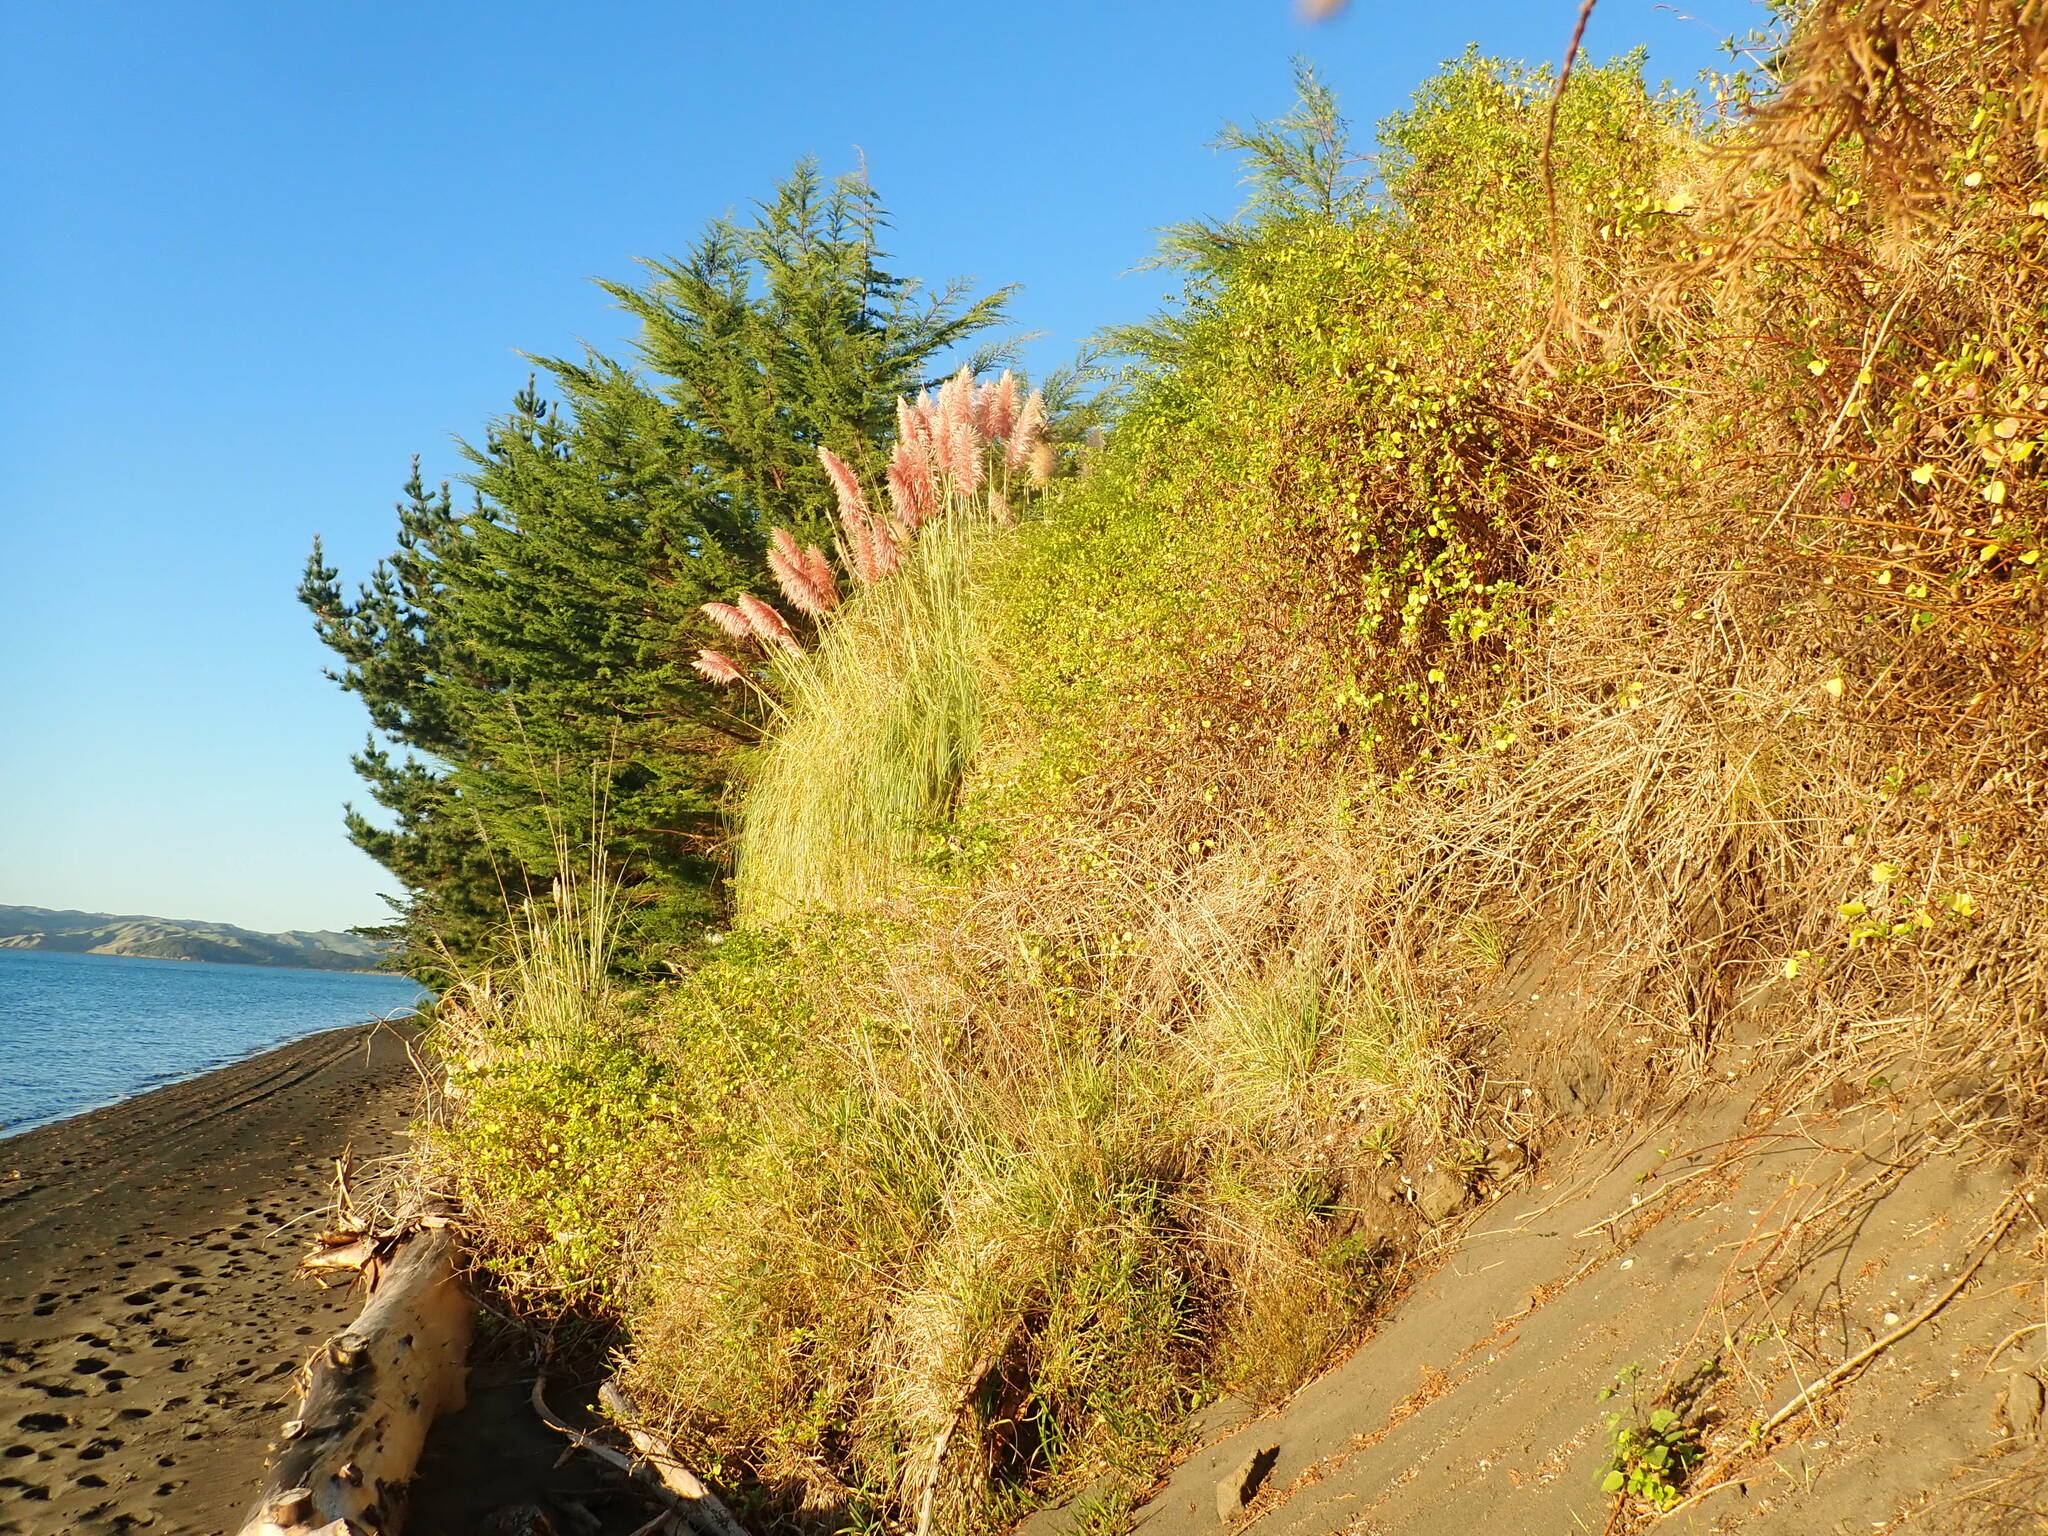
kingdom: Plantae
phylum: Tracheophyta
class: Magnoliopsida
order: Asterales
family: Asteraceae
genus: Senecio
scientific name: Senecio angulatus
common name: Climbing groundsel
